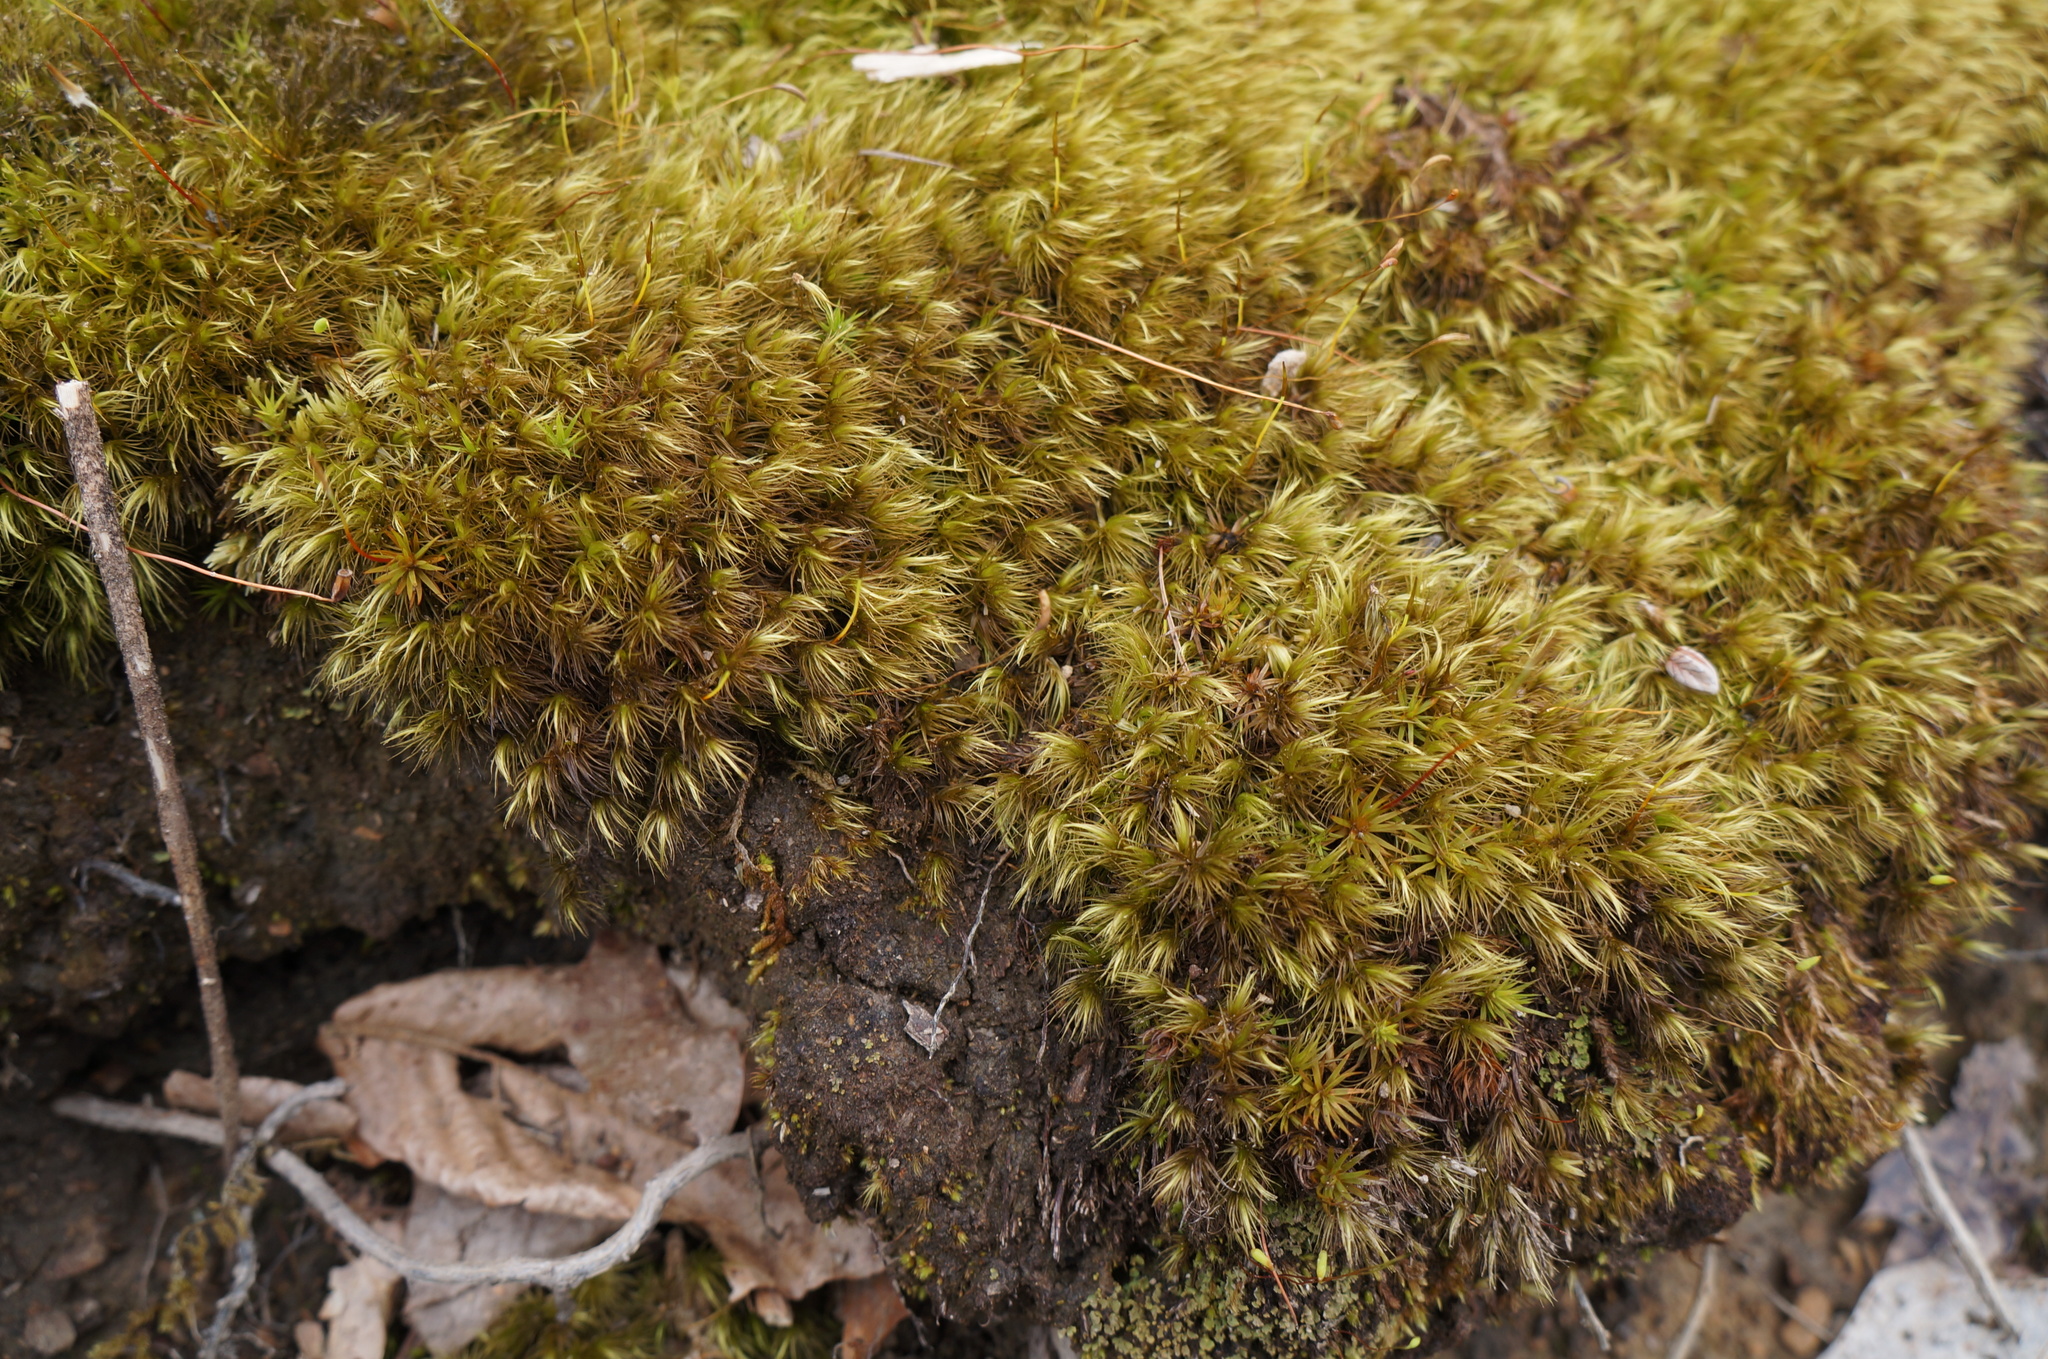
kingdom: Plantae
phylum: Bryophyta
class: Bryopsida
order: Dicranales
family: Dicranaceae
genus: Dicranum
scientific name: Dicranum scoparium
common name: Broom fork-moss
